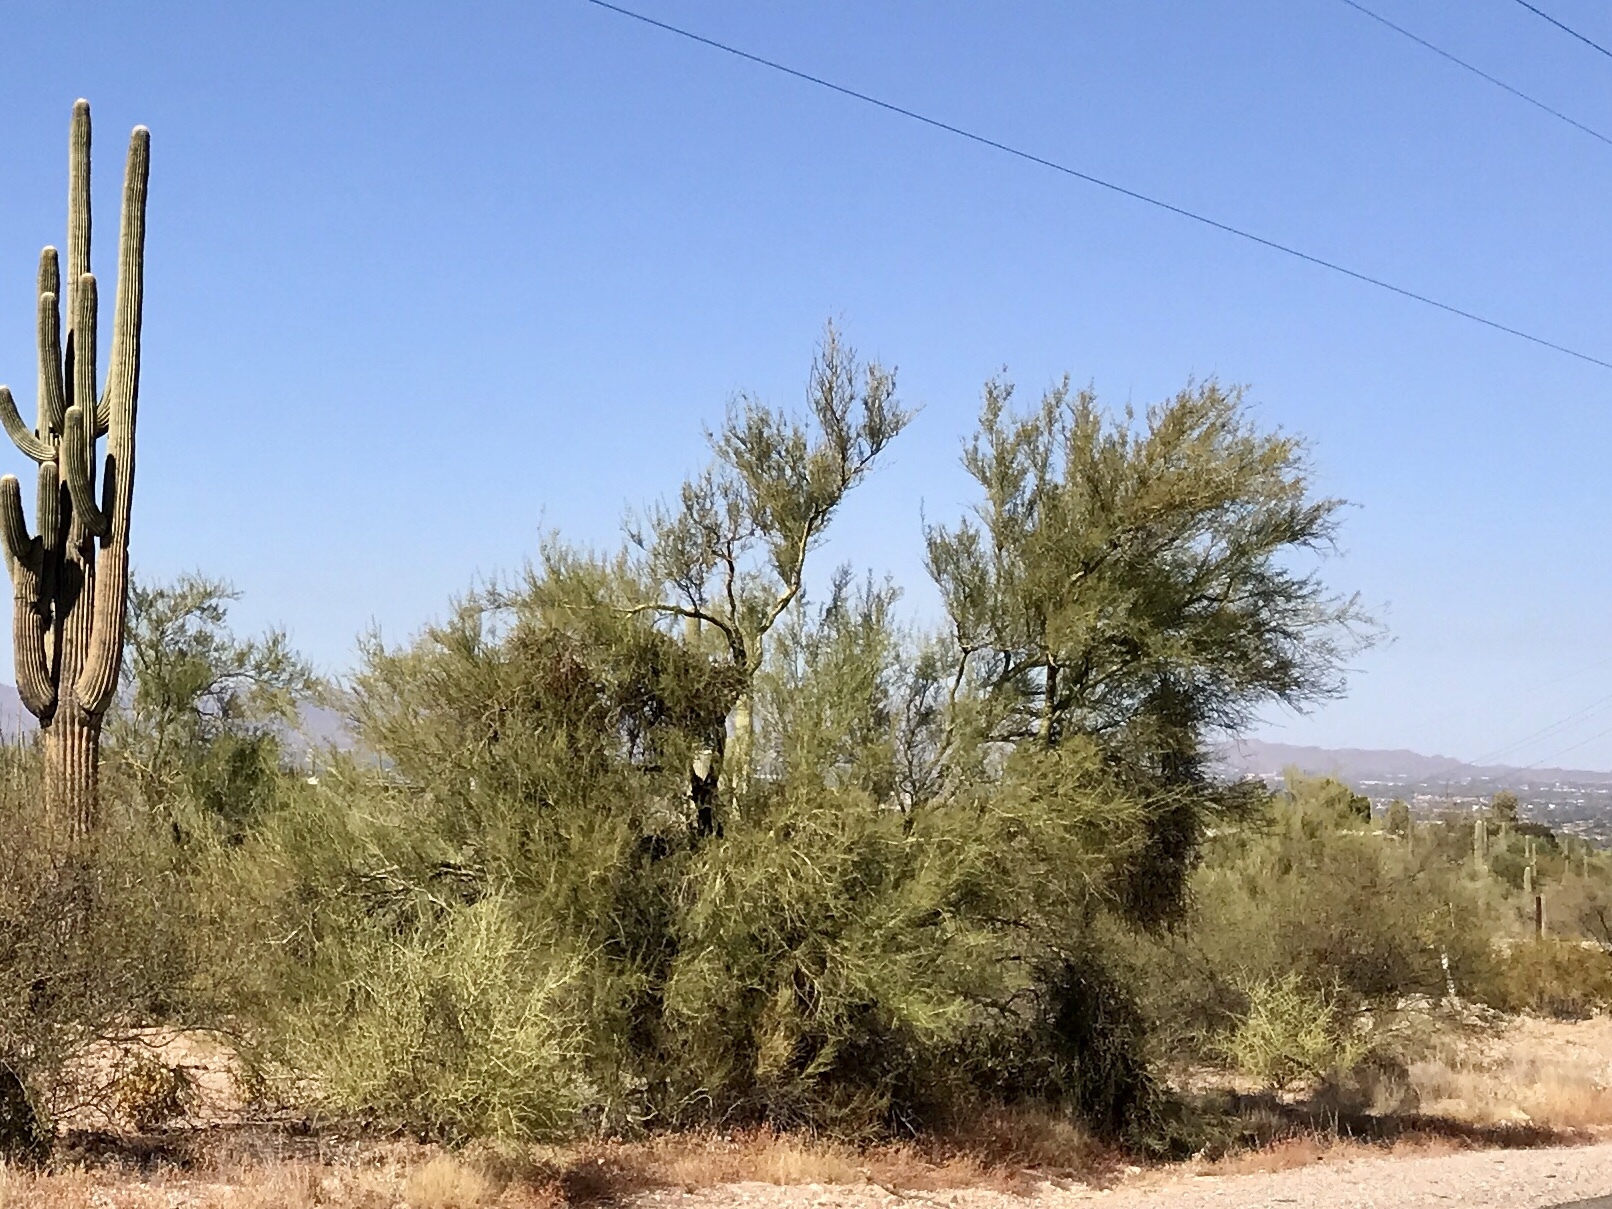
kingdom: Plantae
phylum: Tracheophyta
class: Magnoliopsida
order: Fabales
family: Fabaceae
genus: Parkinsonia
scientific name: Parkinsonia microphylla
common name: Yellow paloverde
